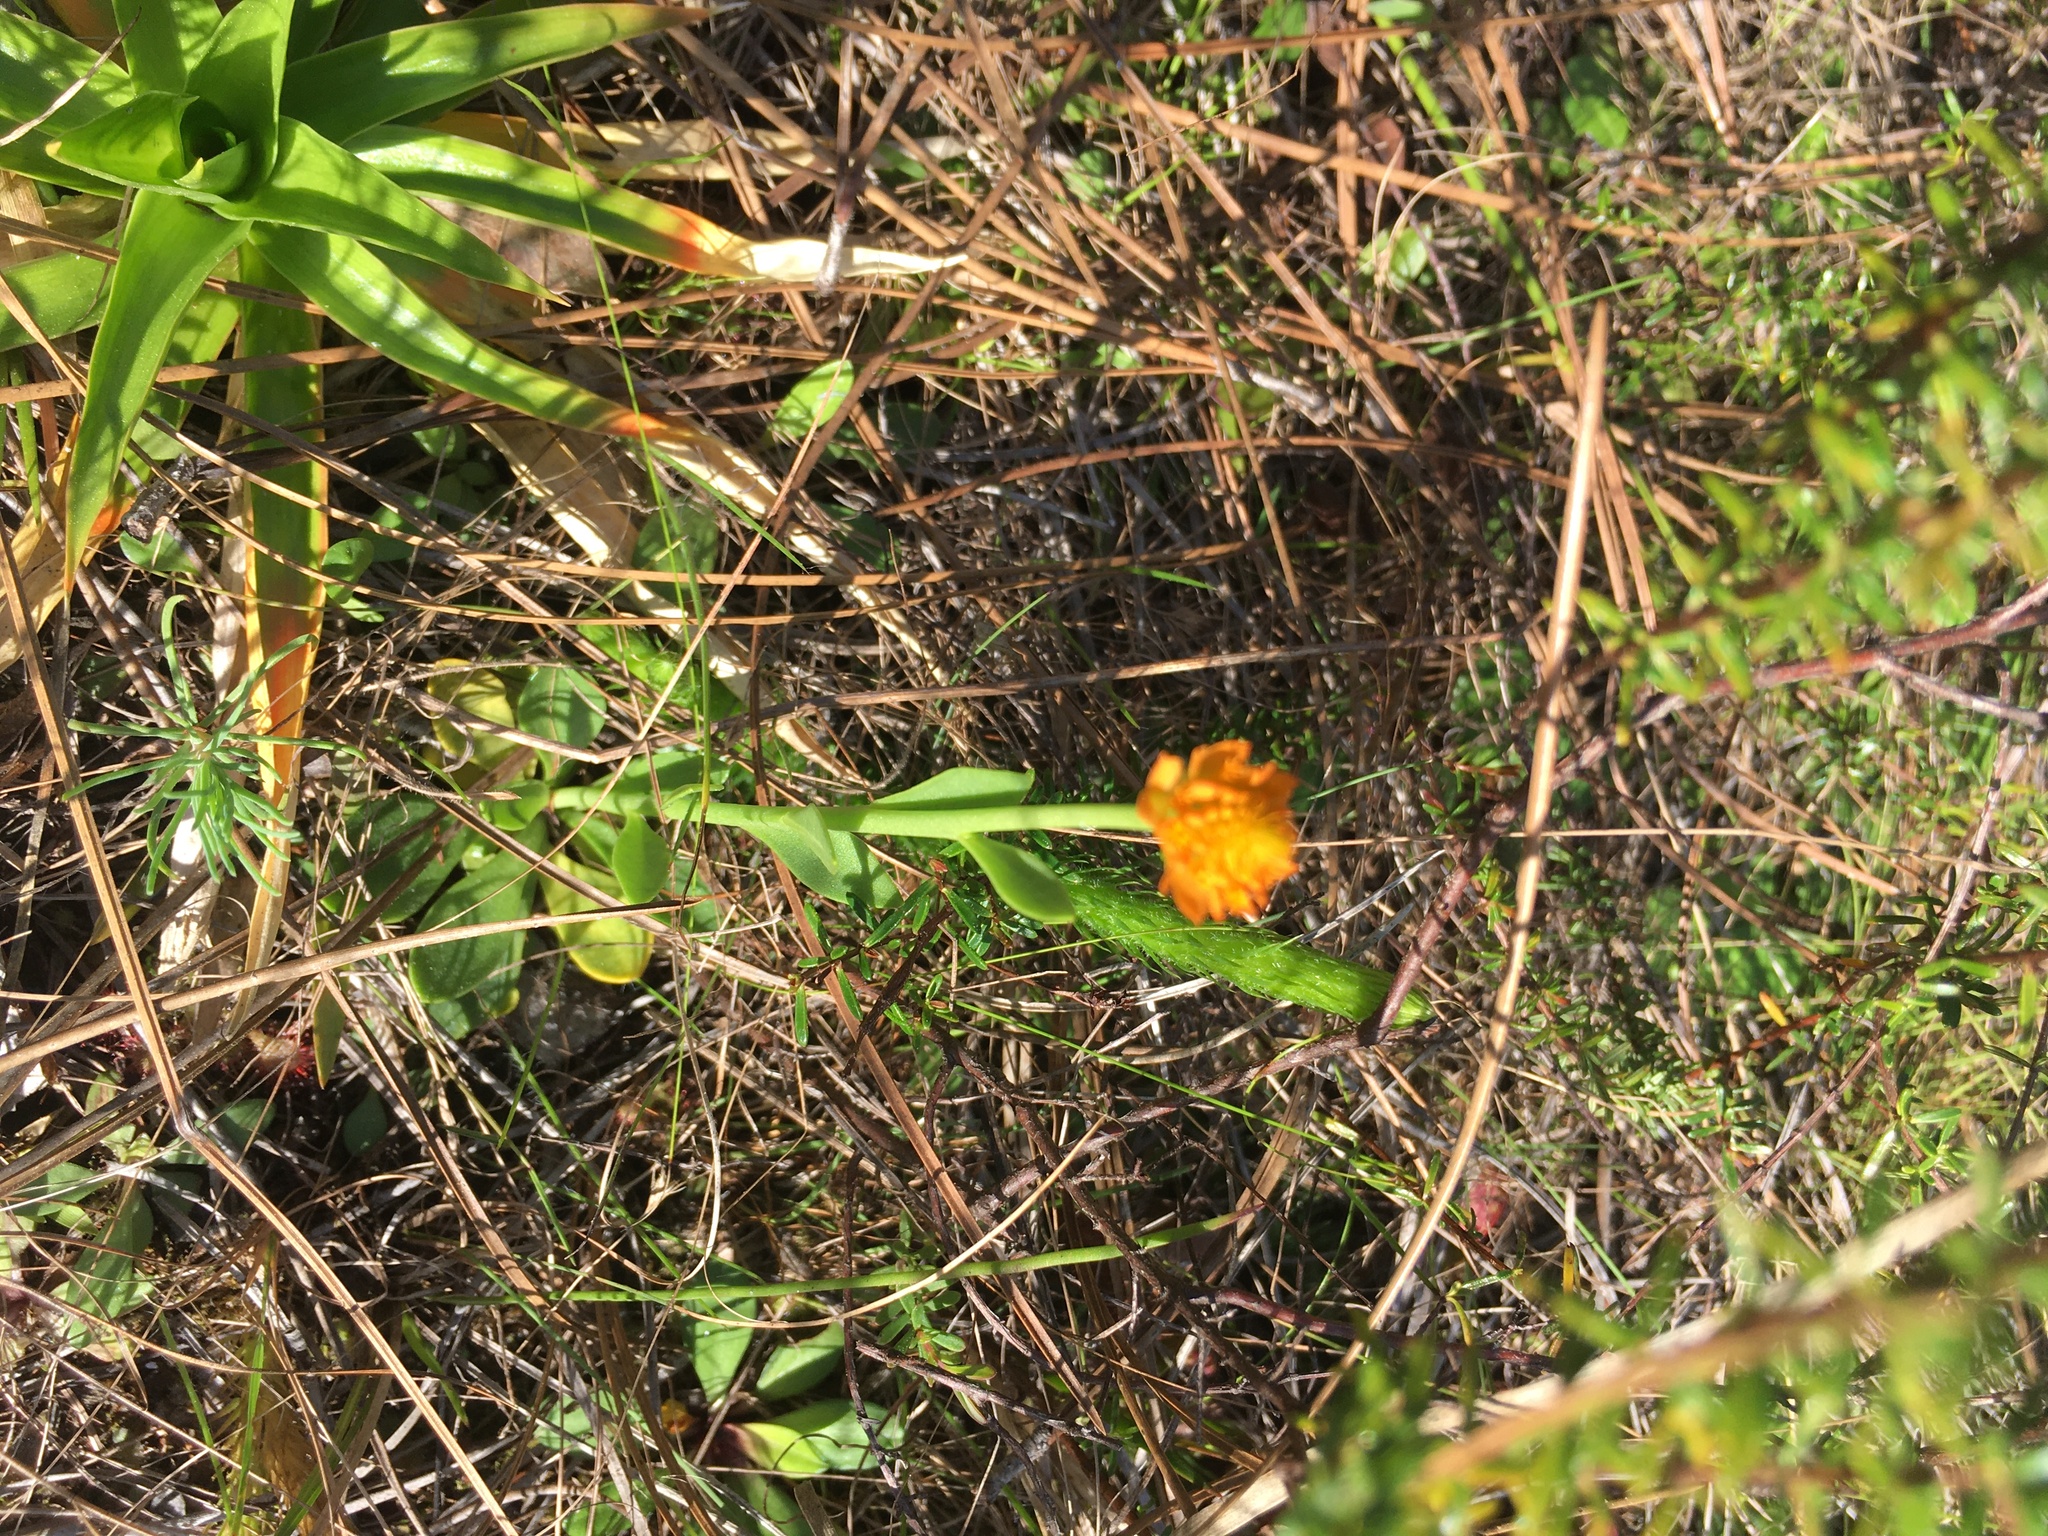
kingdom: Plantae
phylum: Tracheophyta
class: Magnoliopsida
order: Fabales
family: Polygalaceae
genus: Polygala
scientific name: Polygala lutea
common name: Orange milkwort
